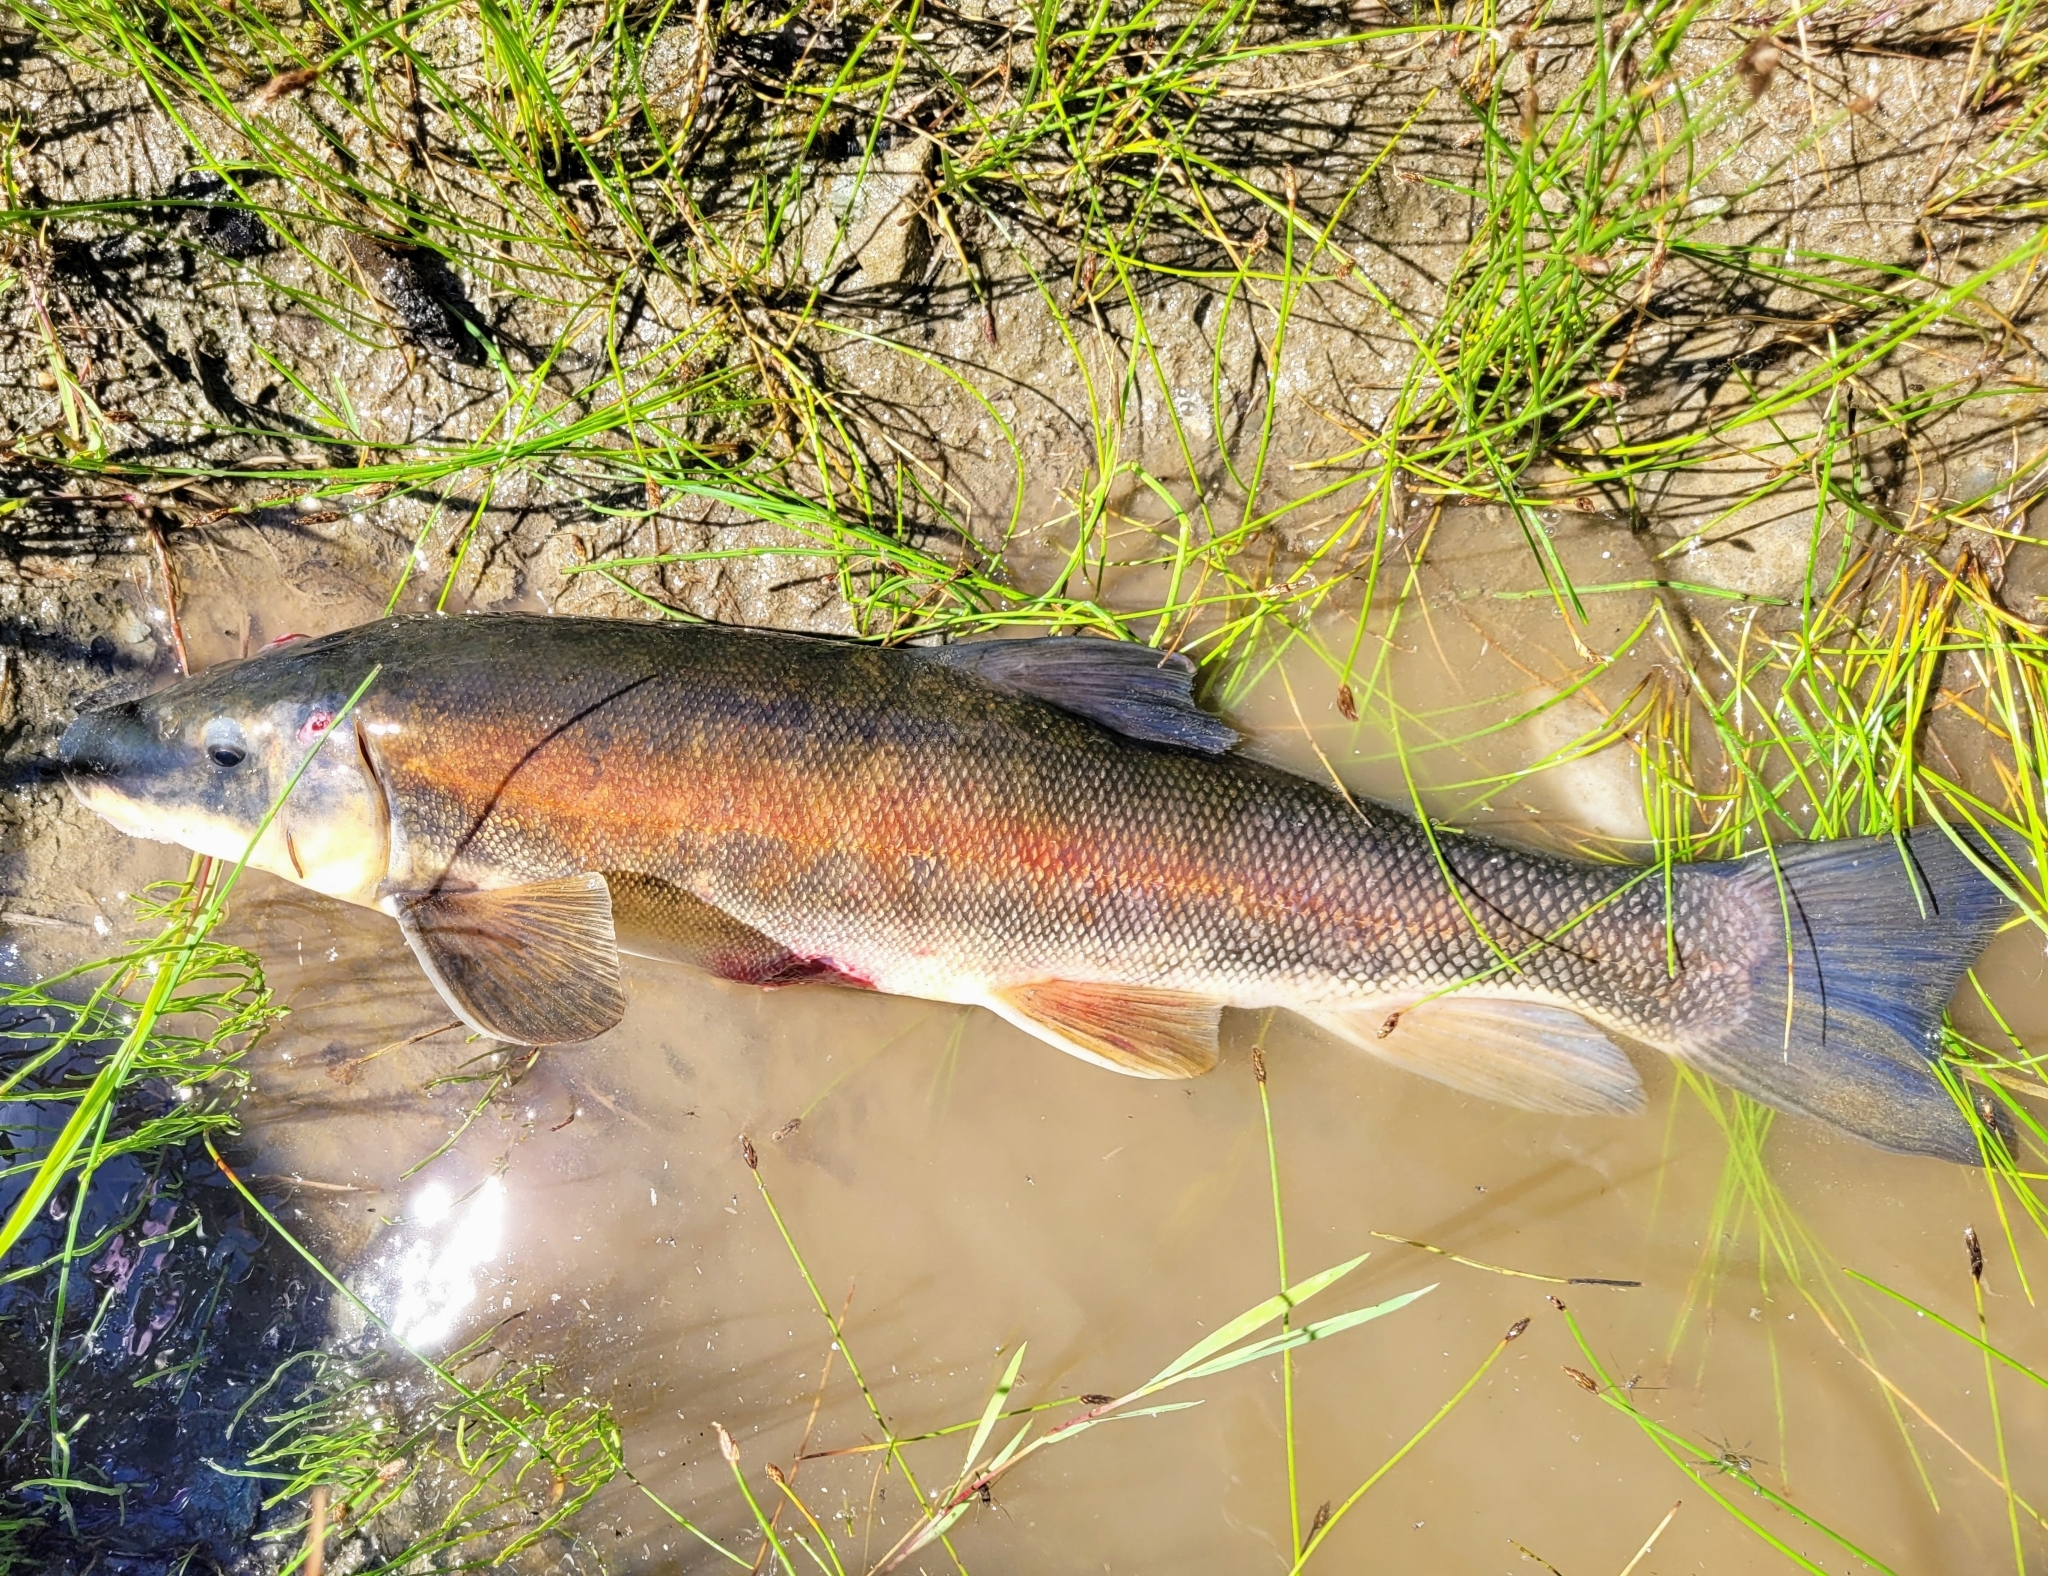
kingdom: Animalia
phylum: Chordata
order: Cypriniformes
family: Catostomidae
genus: Catostomus
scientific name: Catostomus catostomus
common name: Longnose sucker
